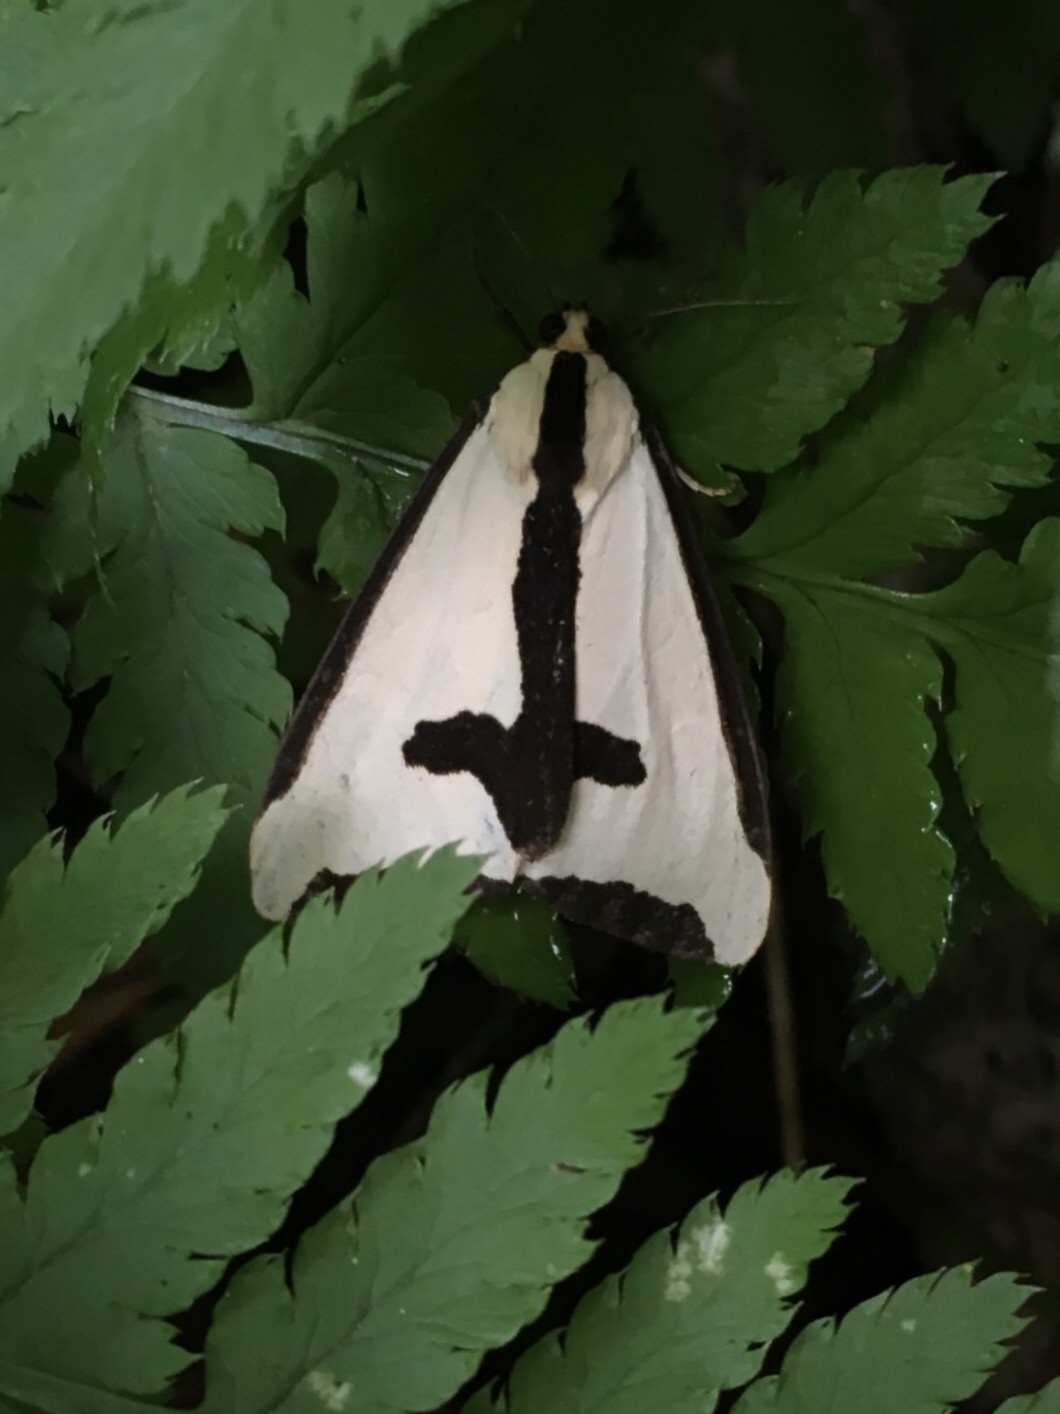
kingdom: Animalia
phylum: Arthropoda
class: Insecta
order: Lepidoptera
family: Erebidae
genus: Haploa
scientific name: Haploa clymene
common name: Clymene moth
